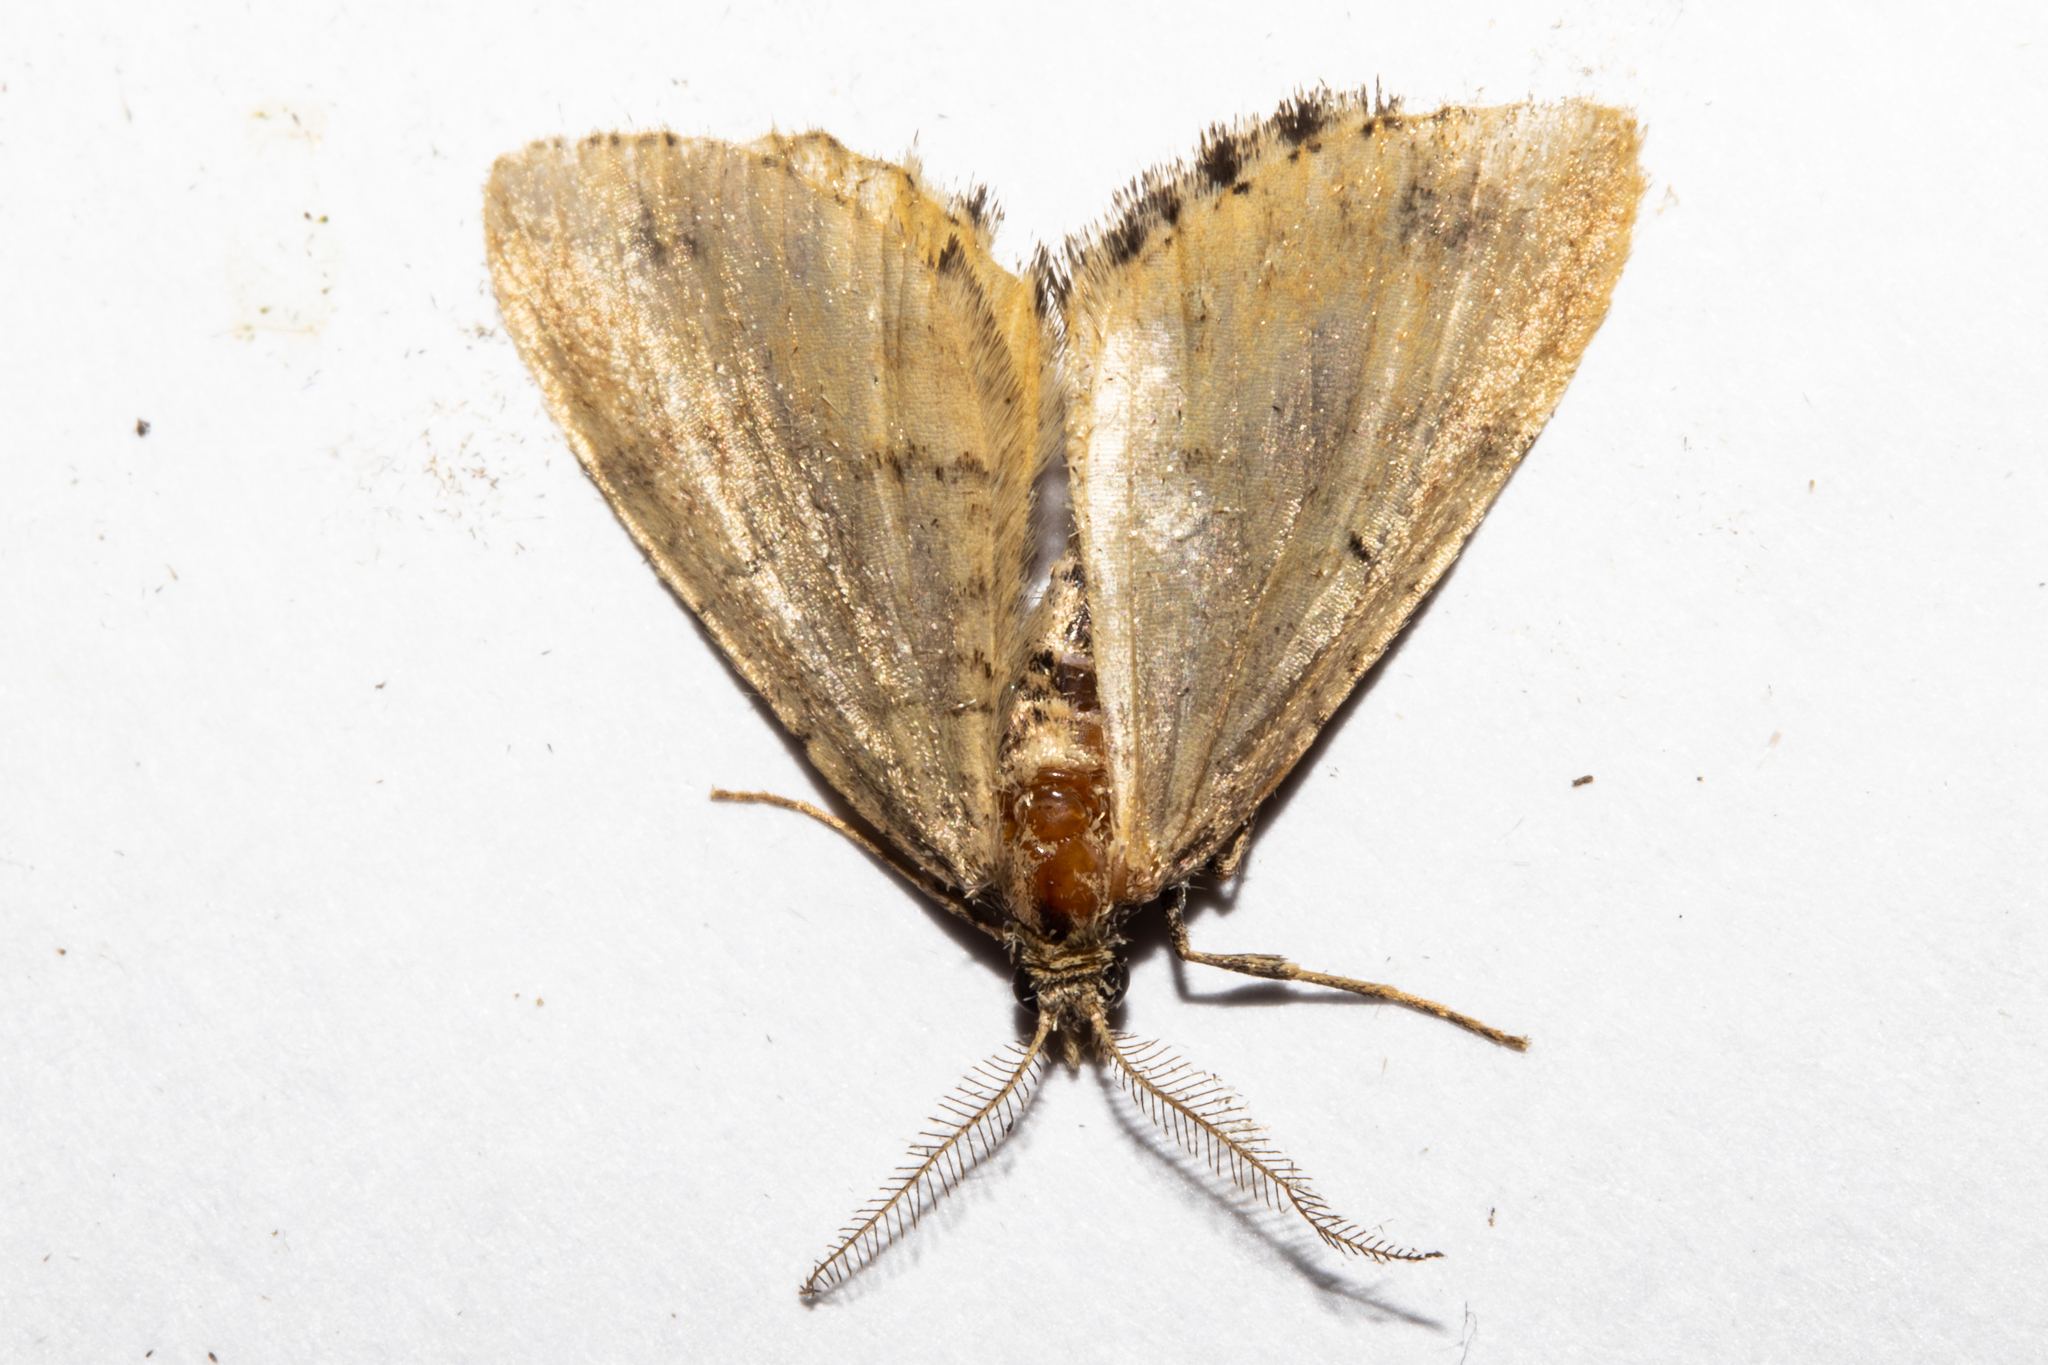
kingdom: Animalia
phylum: Arthropoda
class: Insecta
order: Lepidoptera
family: Geometridae
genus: Asaphodes
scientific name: Asaphodes aegrota
